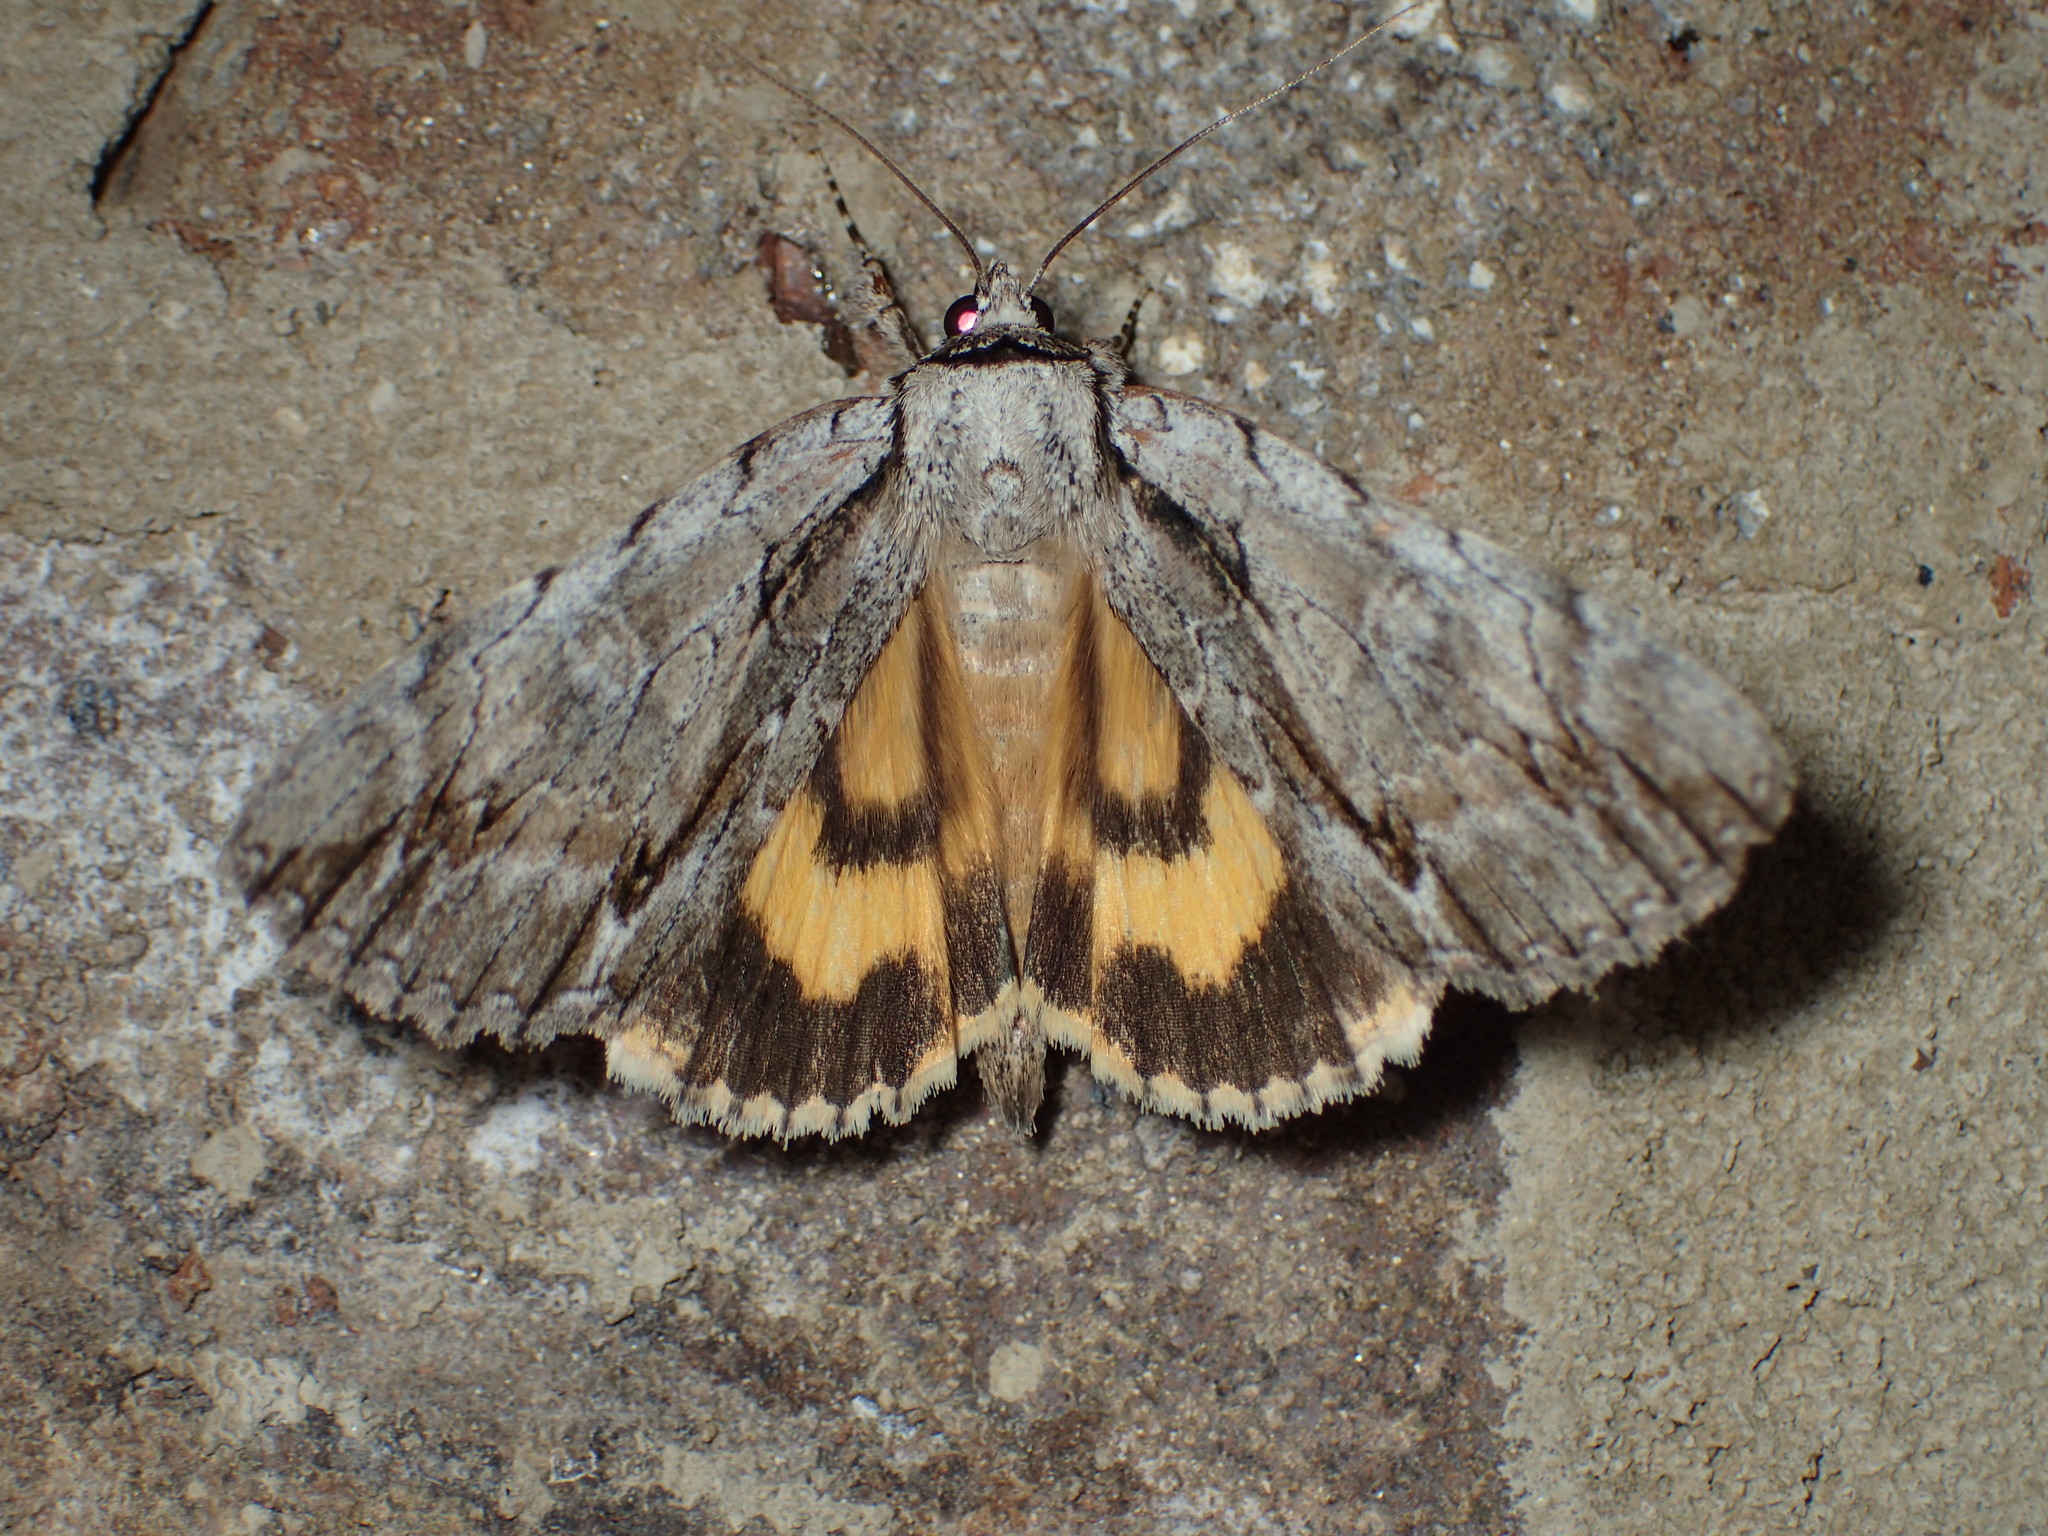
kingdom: Animalia
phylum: Arthropoda
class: Insecta
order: Lepidoptera
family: Erebidae
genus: Catocala
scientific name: Catocala clintonii
